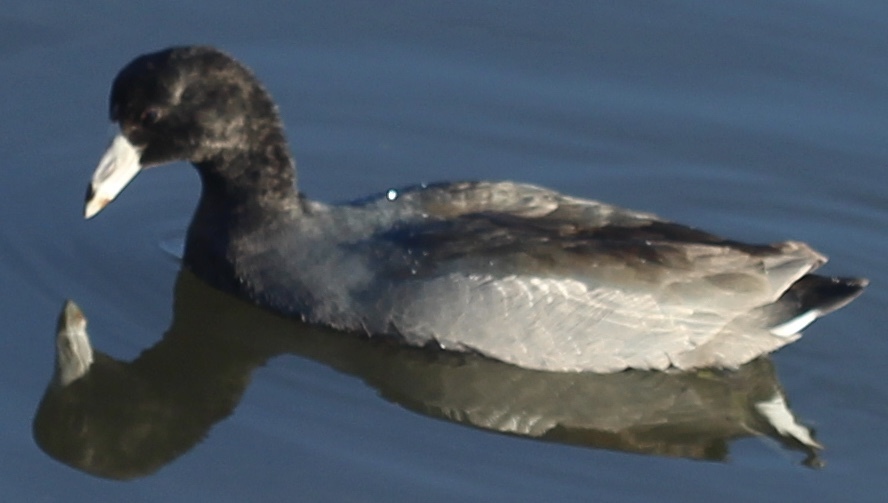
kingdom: Animalia
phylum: Chordata
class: Aves
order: Gruiformes
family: Rallidae
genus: Fulica
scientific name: Fulica americana
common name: American coot
